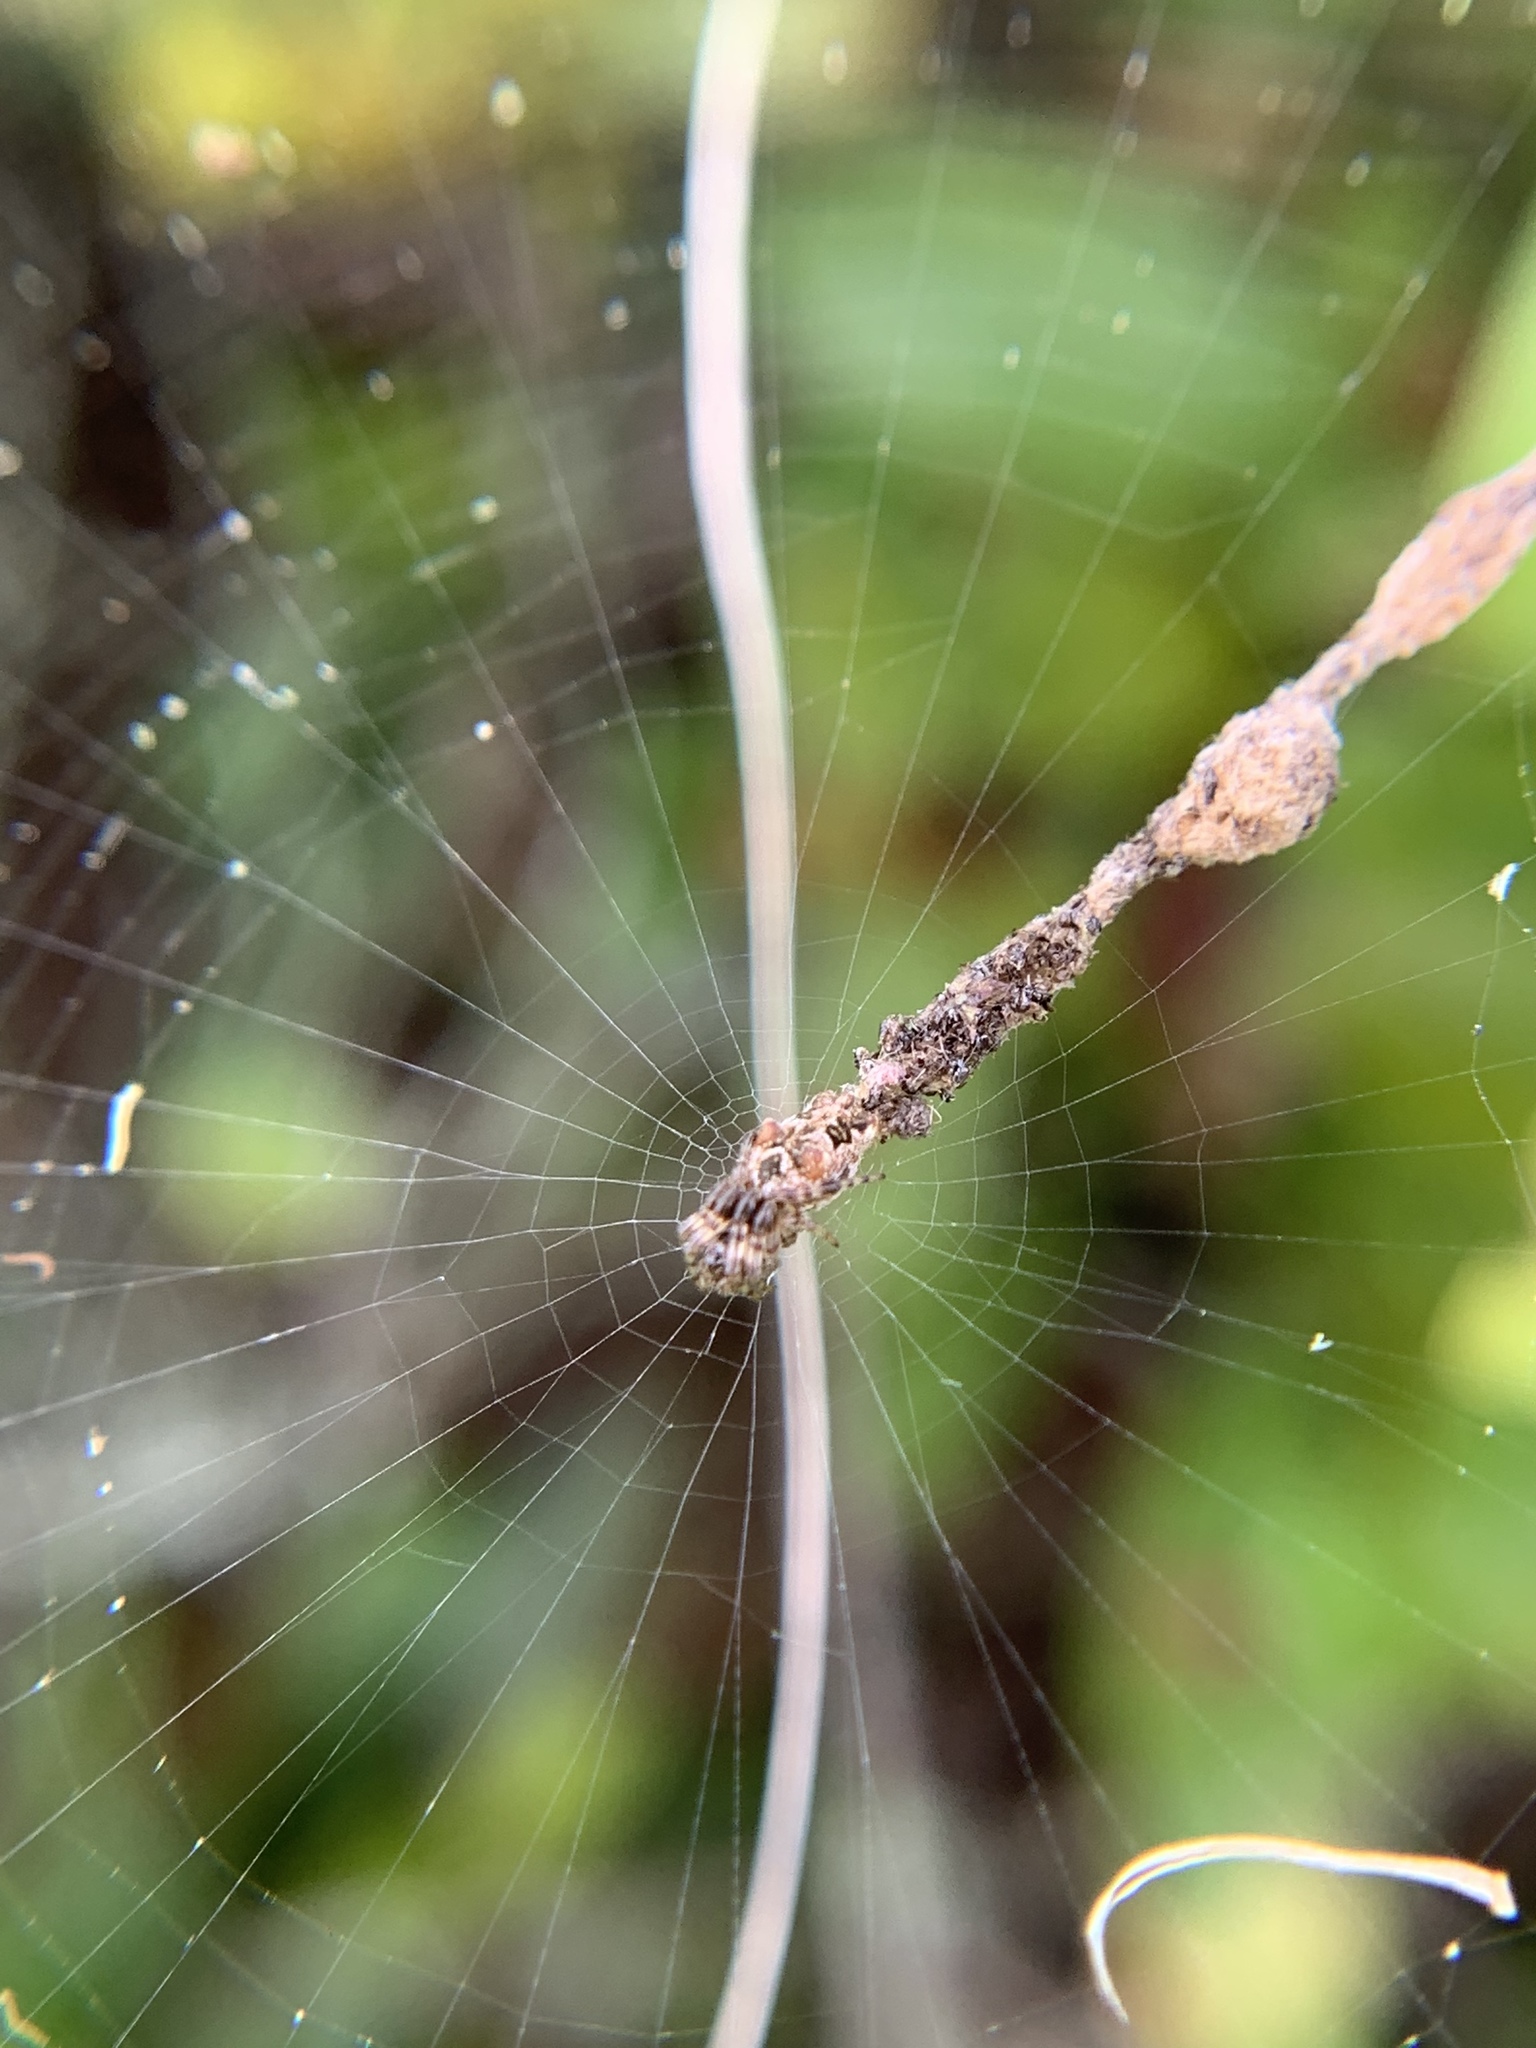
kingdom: Animalia
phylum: Arthropoda
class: Arachnida
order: Araneae
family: Araneidae
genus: Cyclosa
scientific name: Cyclosa walckenaeri
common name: Orb weavers
